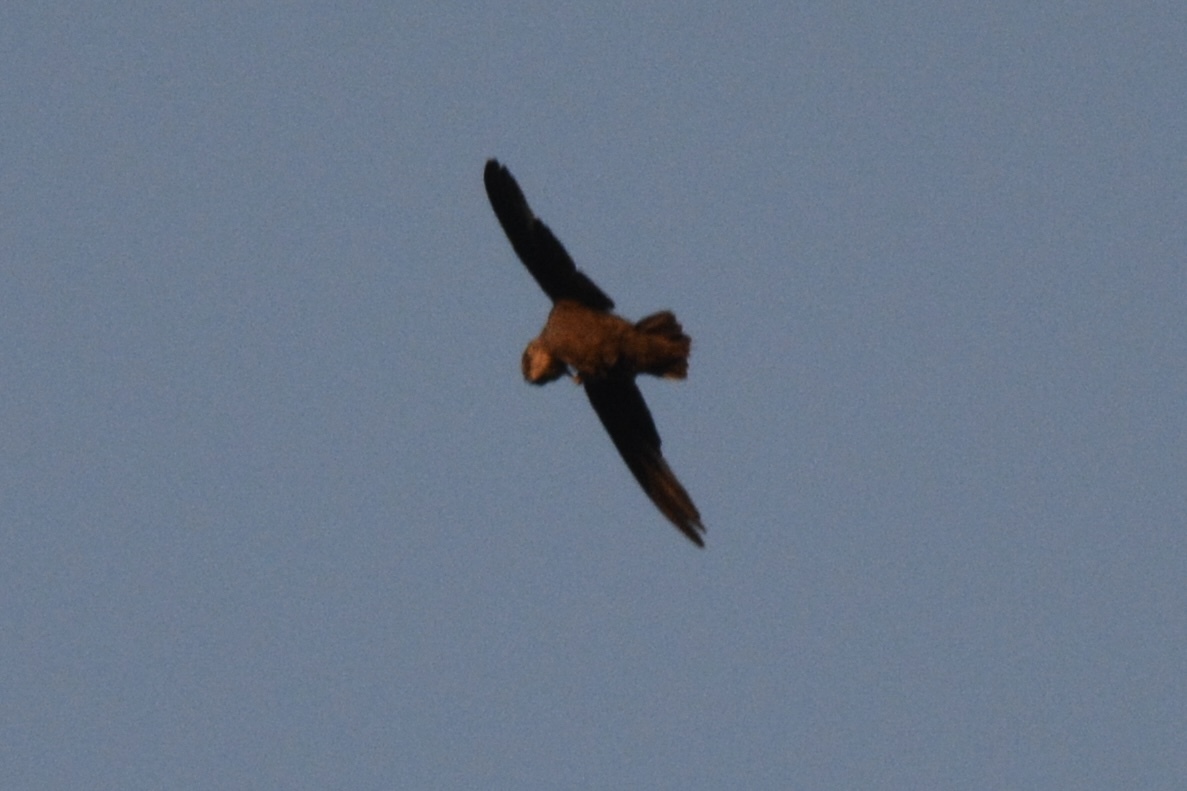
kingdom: Animalia
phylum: Chordata
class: Aves
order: Apodiformes
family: Apodidae
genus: Chaetura
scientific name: Chaetura pelagica
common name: Chimney swift
